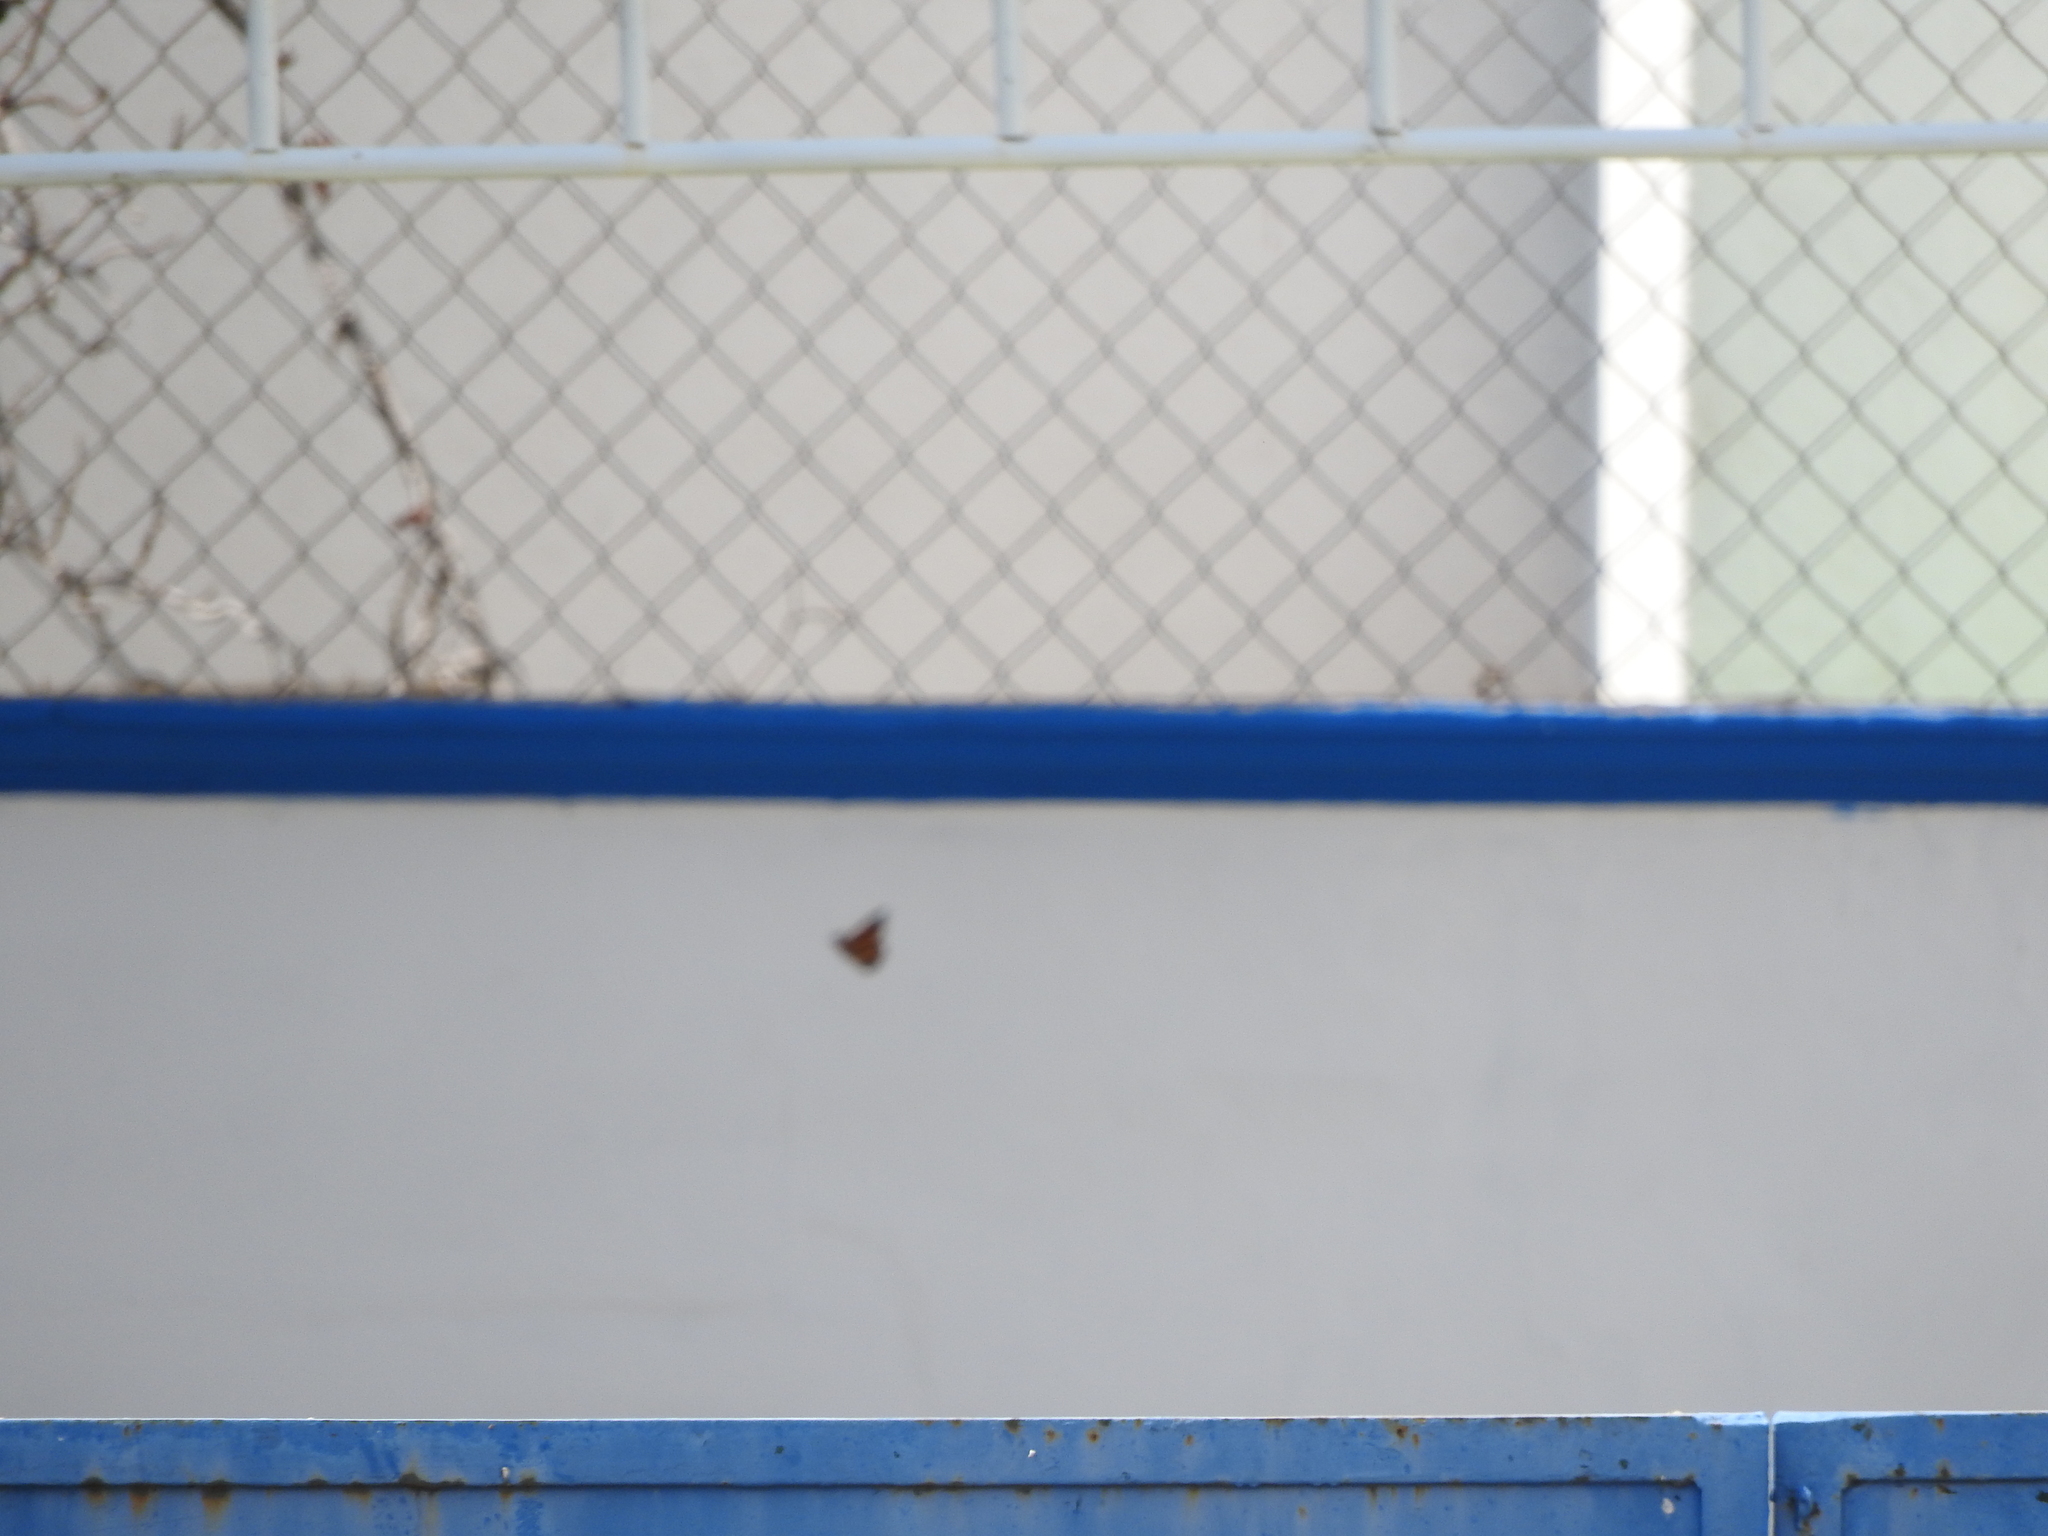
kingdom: Animalia
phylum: Arthropoda
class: Insecta
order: Lepidoptera
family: Nymphalidae
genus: Danaus
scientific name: Danaus plexippus
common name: Monarch
